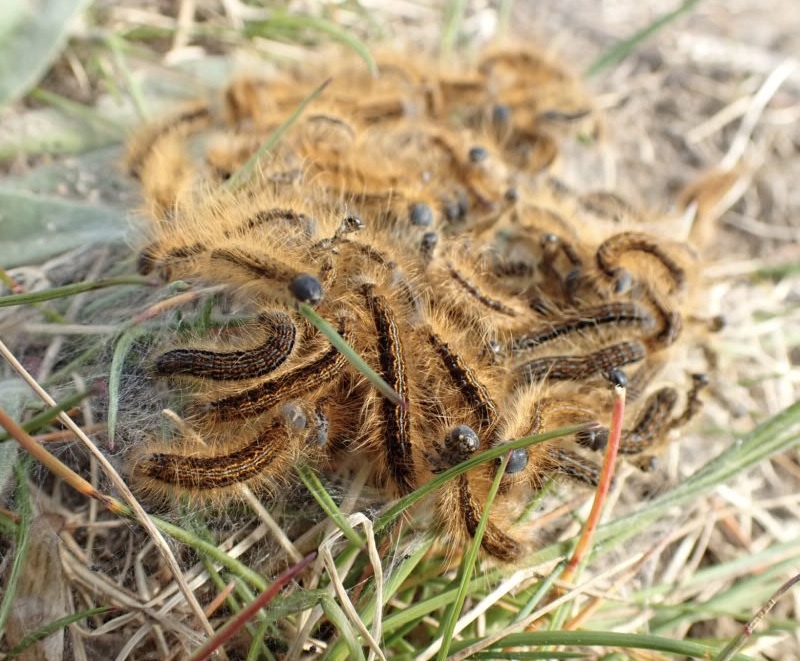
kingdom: Animalia
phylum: Arthropoda
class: Insecta
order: Lepidoptera
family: Lasiocampidae
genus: Malacosoma
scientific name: Malacosoma castrense
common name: Ground lackey
